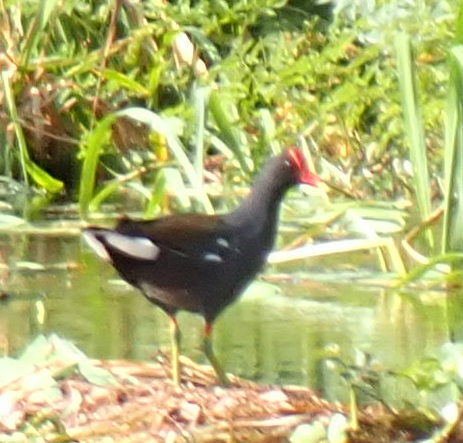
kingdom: Animalia
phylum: Chordata
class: Aves
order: Gruiformes
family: Rallidae
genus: Gallinula
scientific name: Gallinula chloropus
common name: Common moorhen
